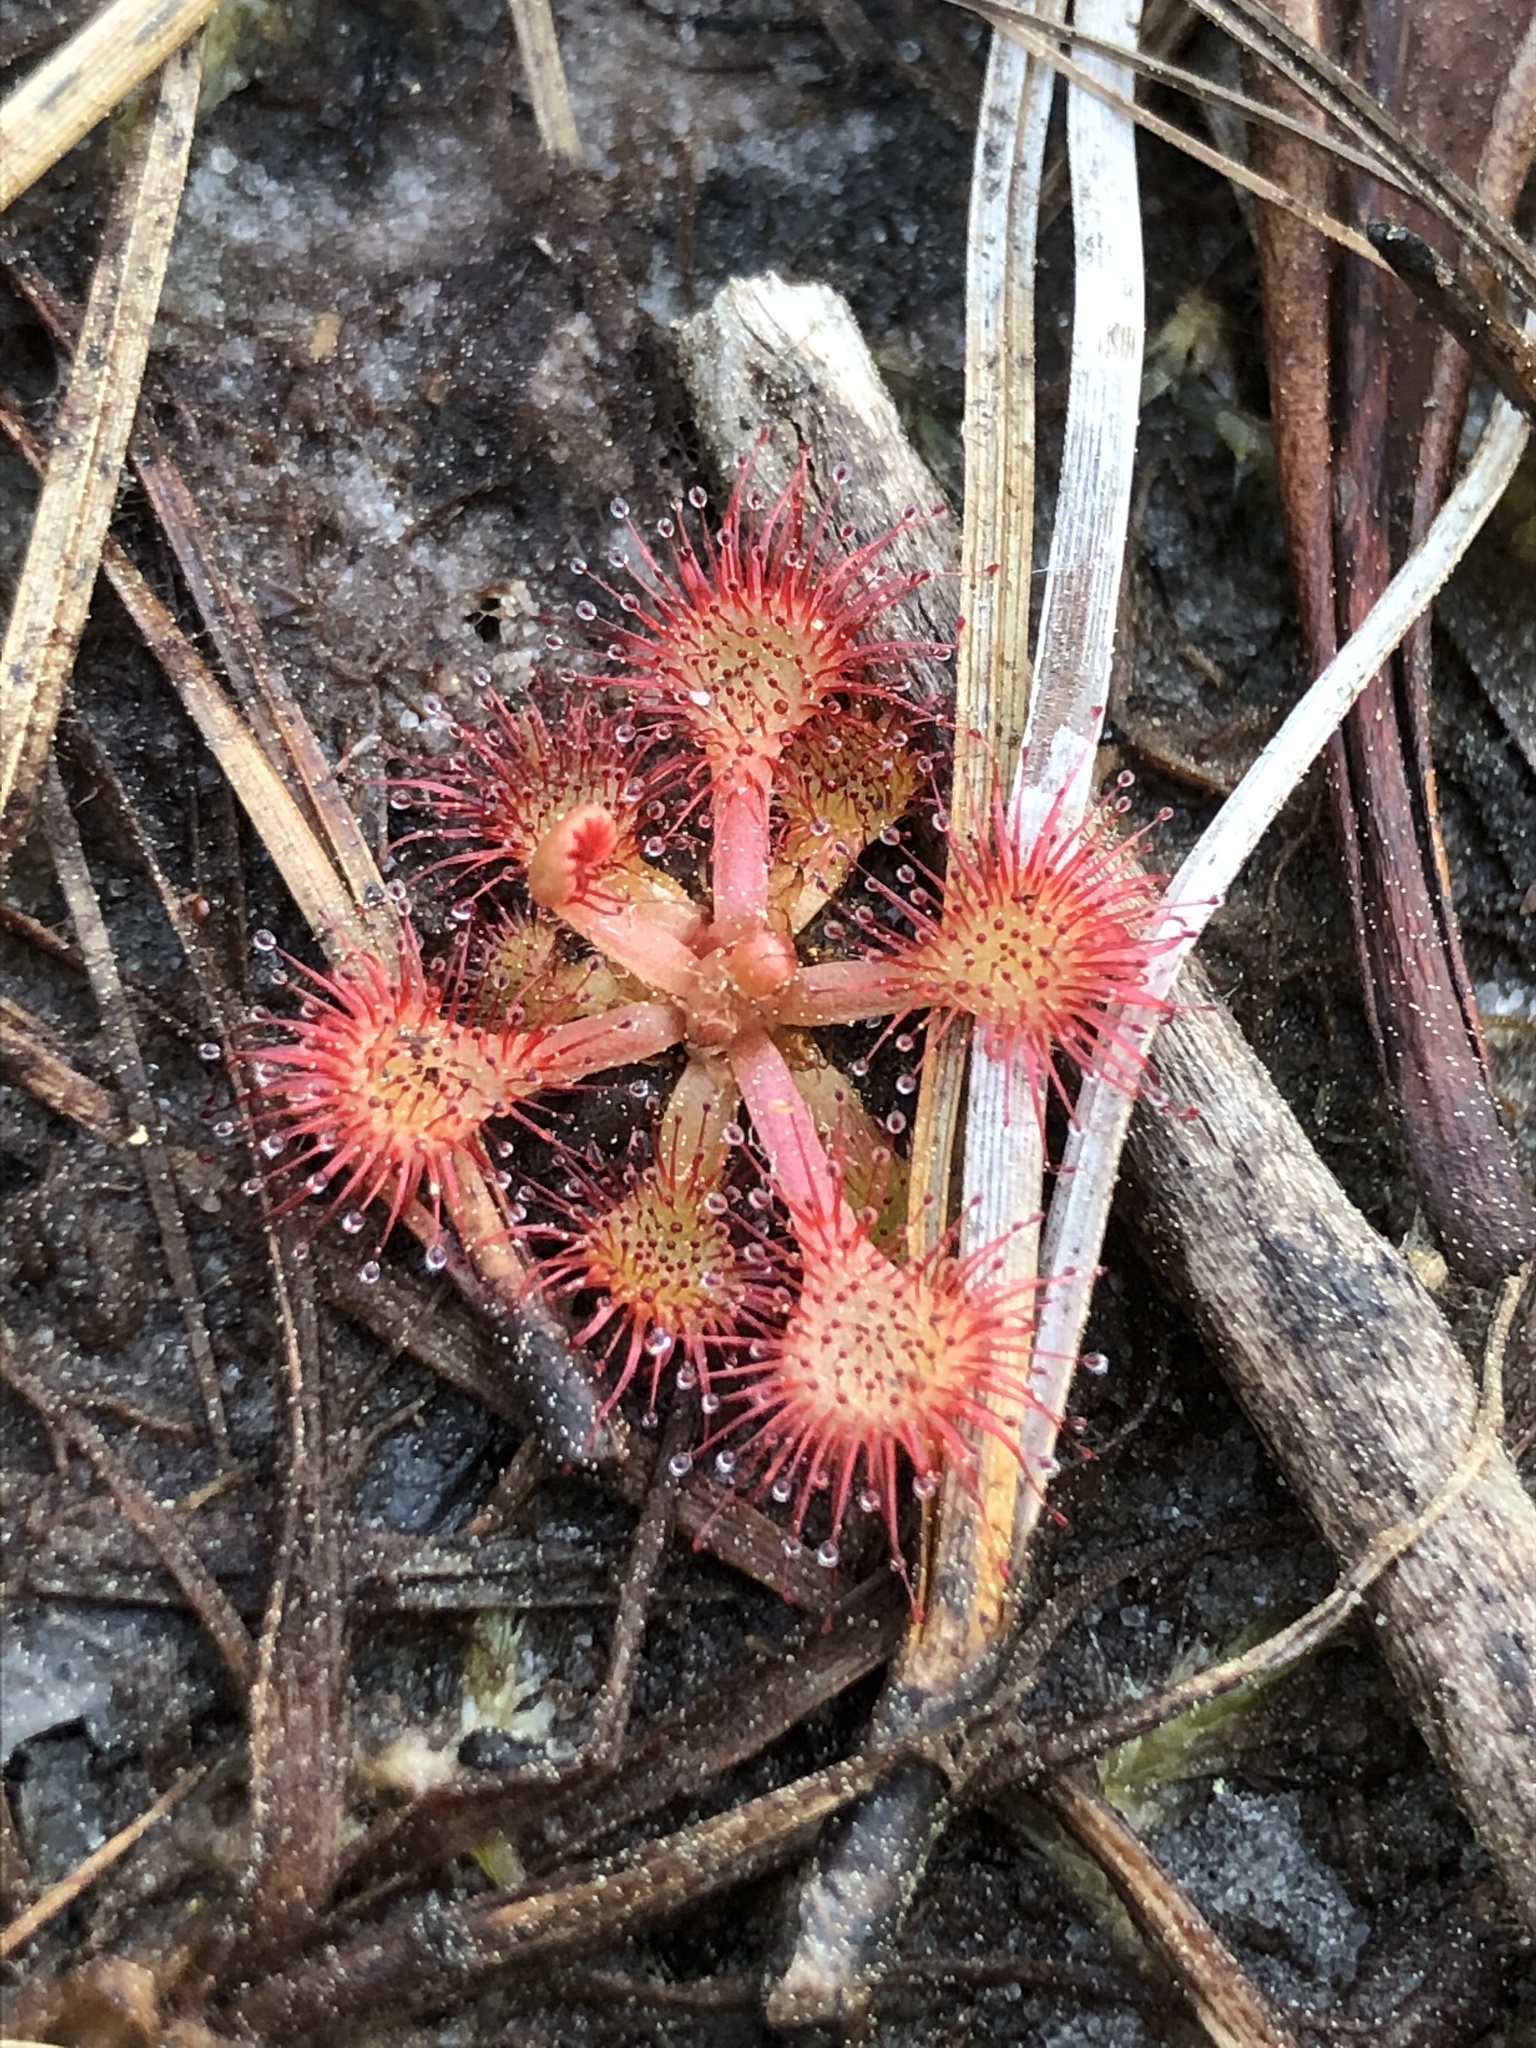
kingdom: Plantae
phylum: Tracheophyta
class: Magnoliopsida
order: Caryophyllales
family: Droseraceae
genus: Drosera
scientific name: Drosera capillaris
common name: Pink sundew
